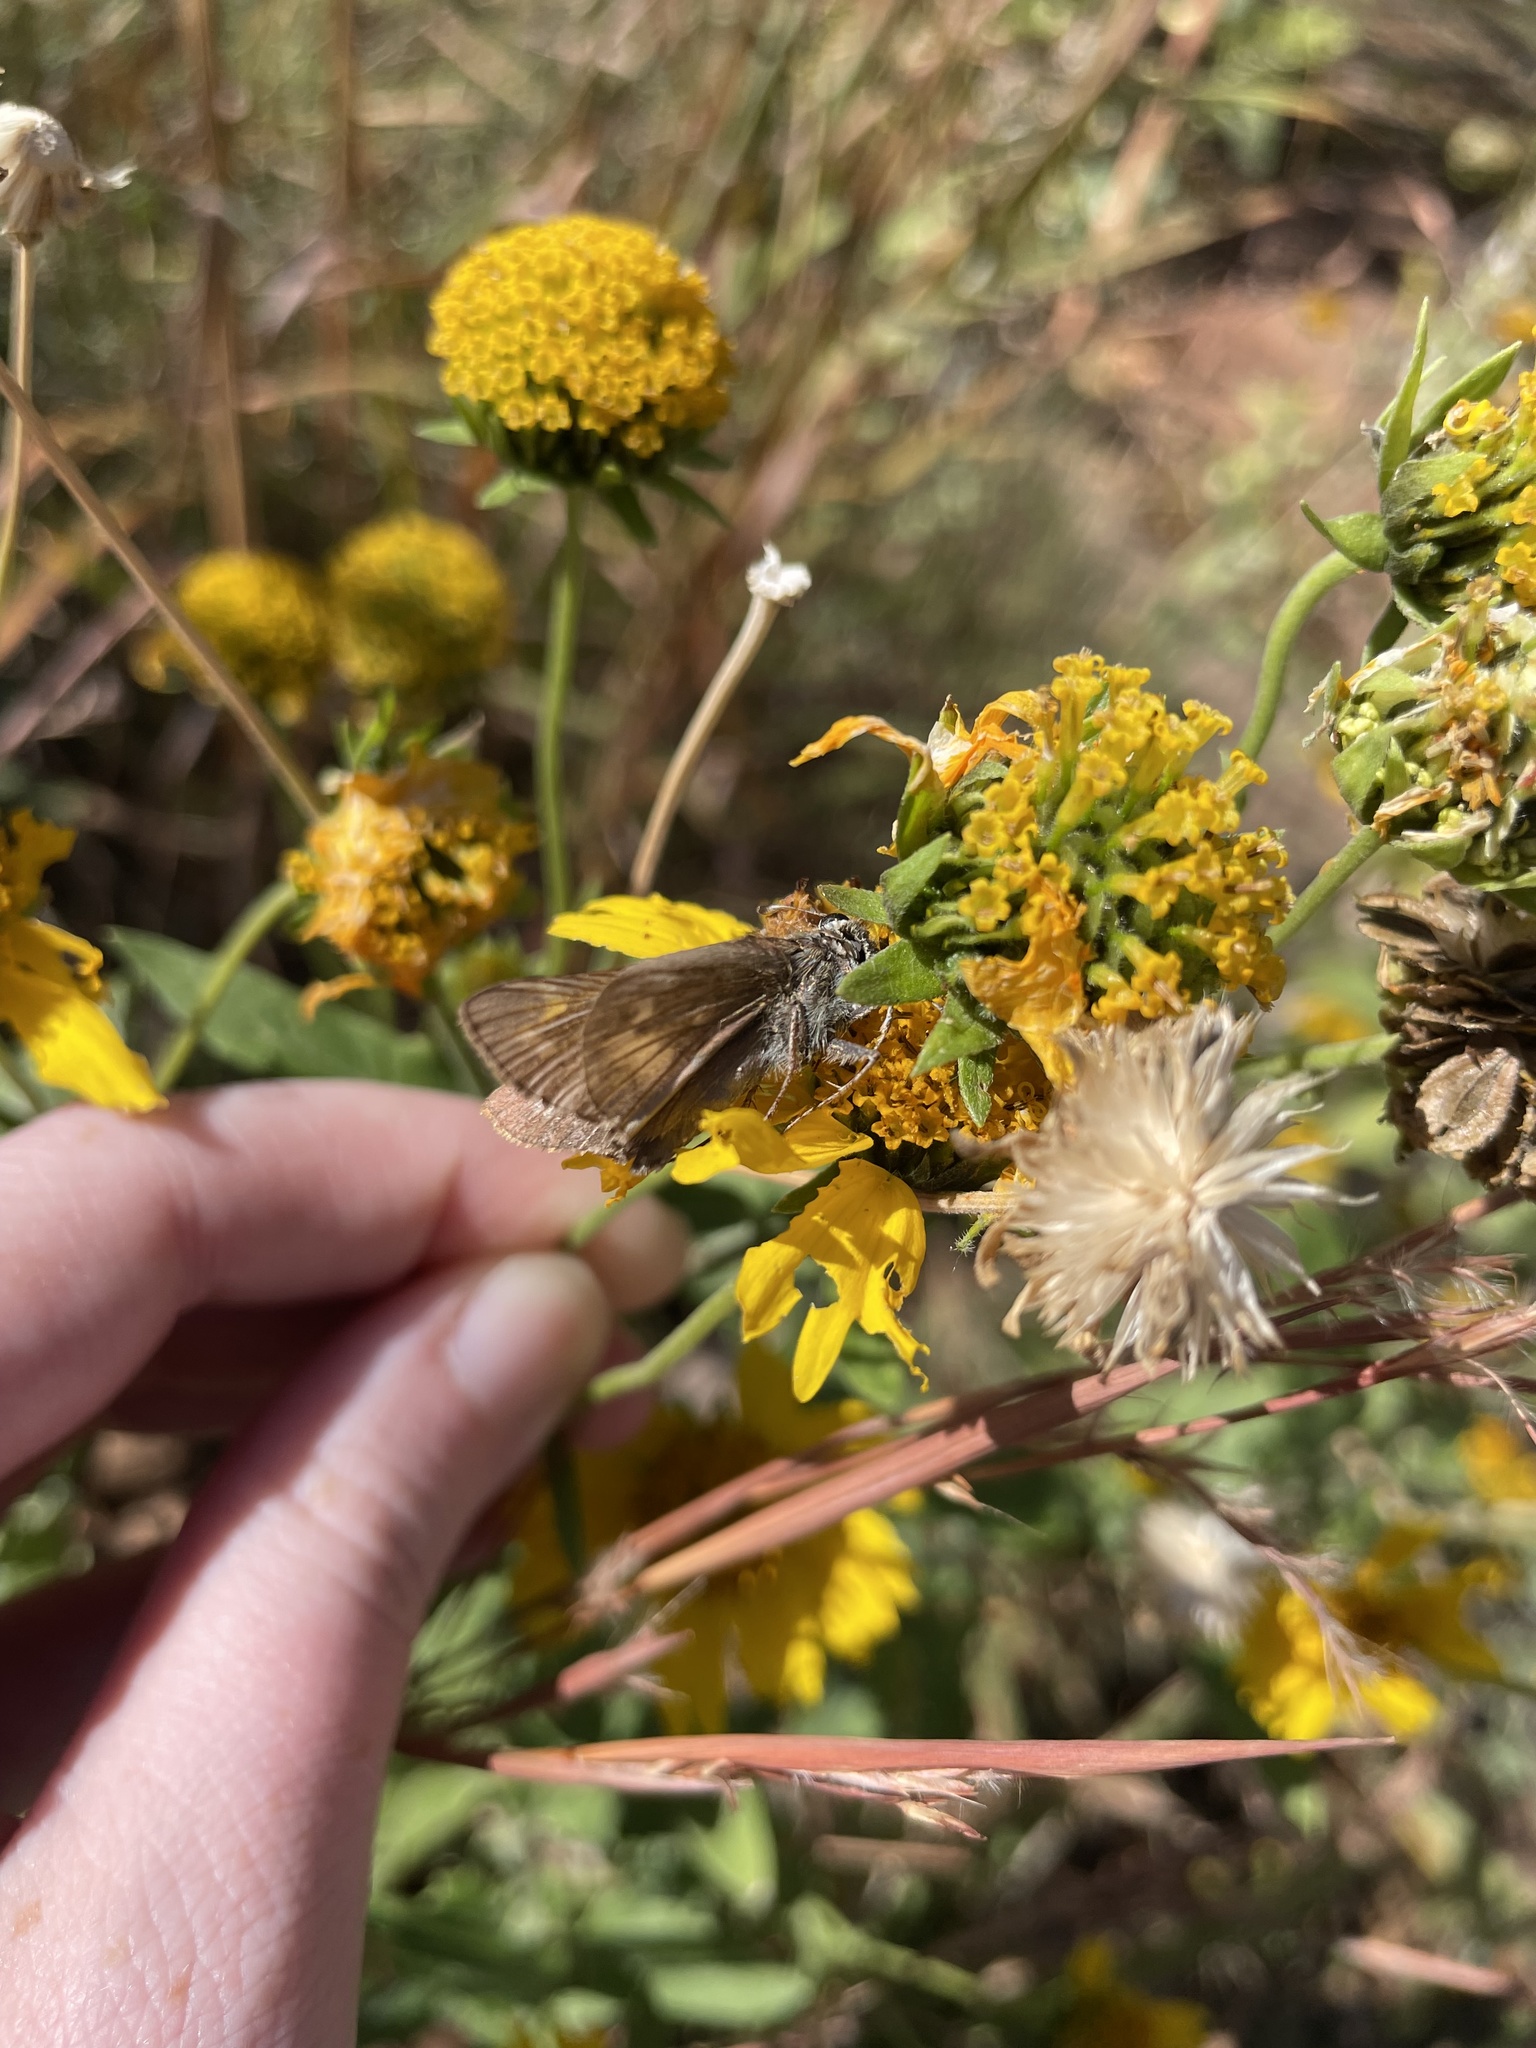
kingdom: Animalia
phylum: Arthropoda
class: Insecta
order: Lepidoptera
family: Hesperiidae
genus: Atalopedes
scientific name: Atalopedes
